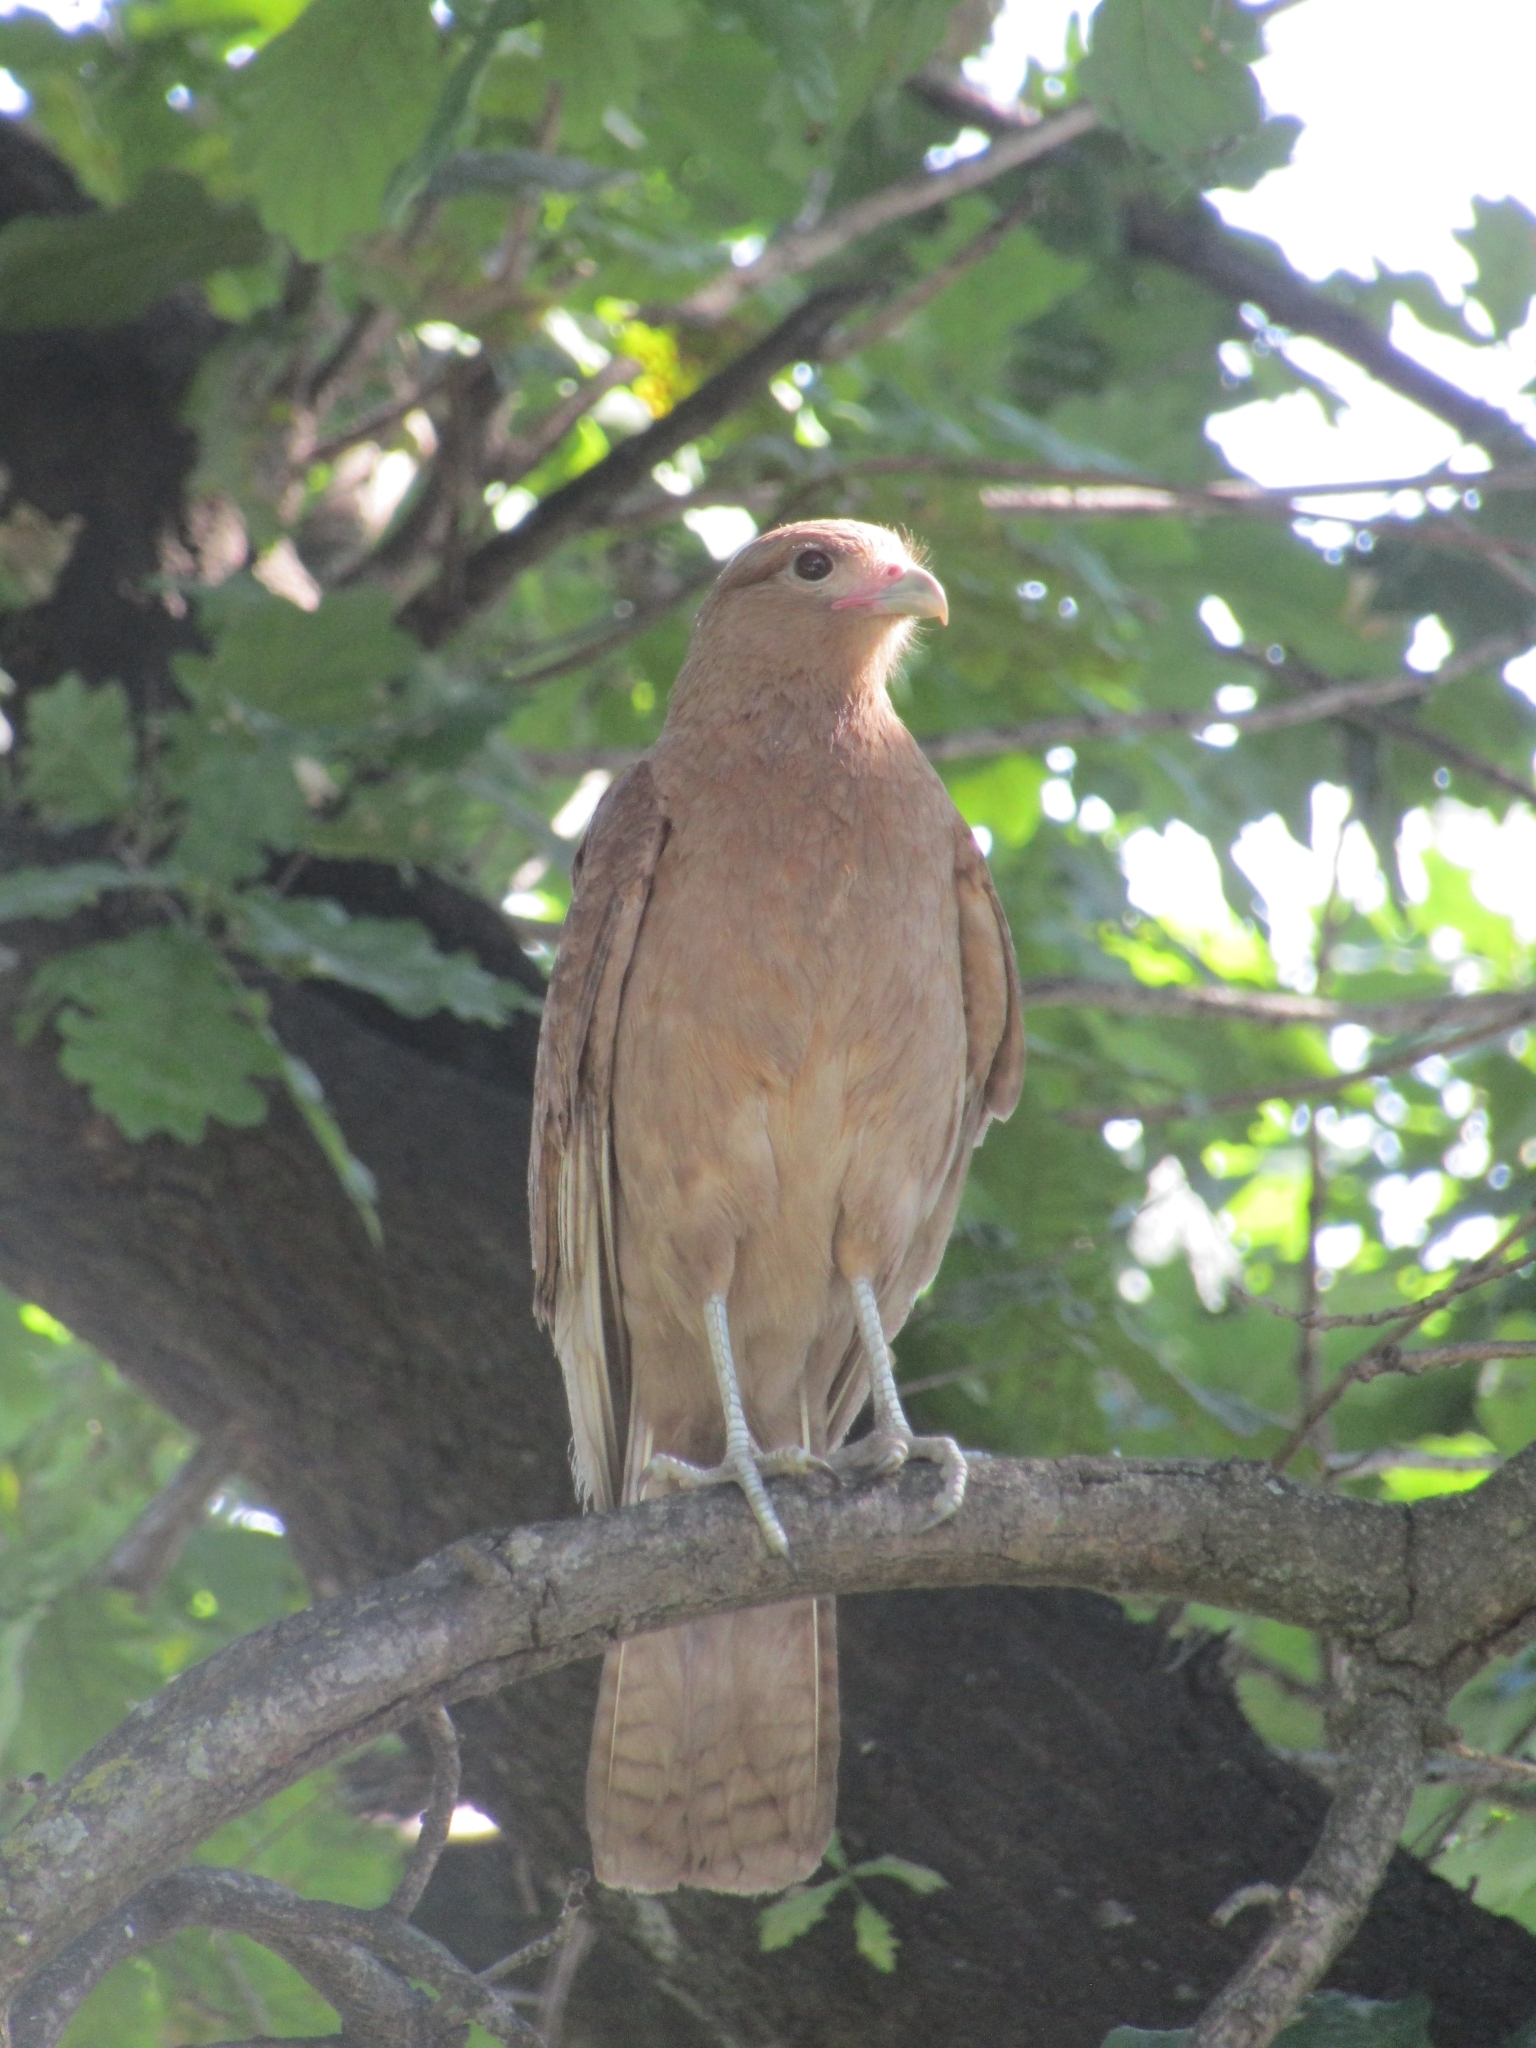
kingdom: Animalia
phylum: Chordata
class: Aves
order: Falconiformes
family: Falconidae
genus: Daptrius
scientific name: Daptrius
